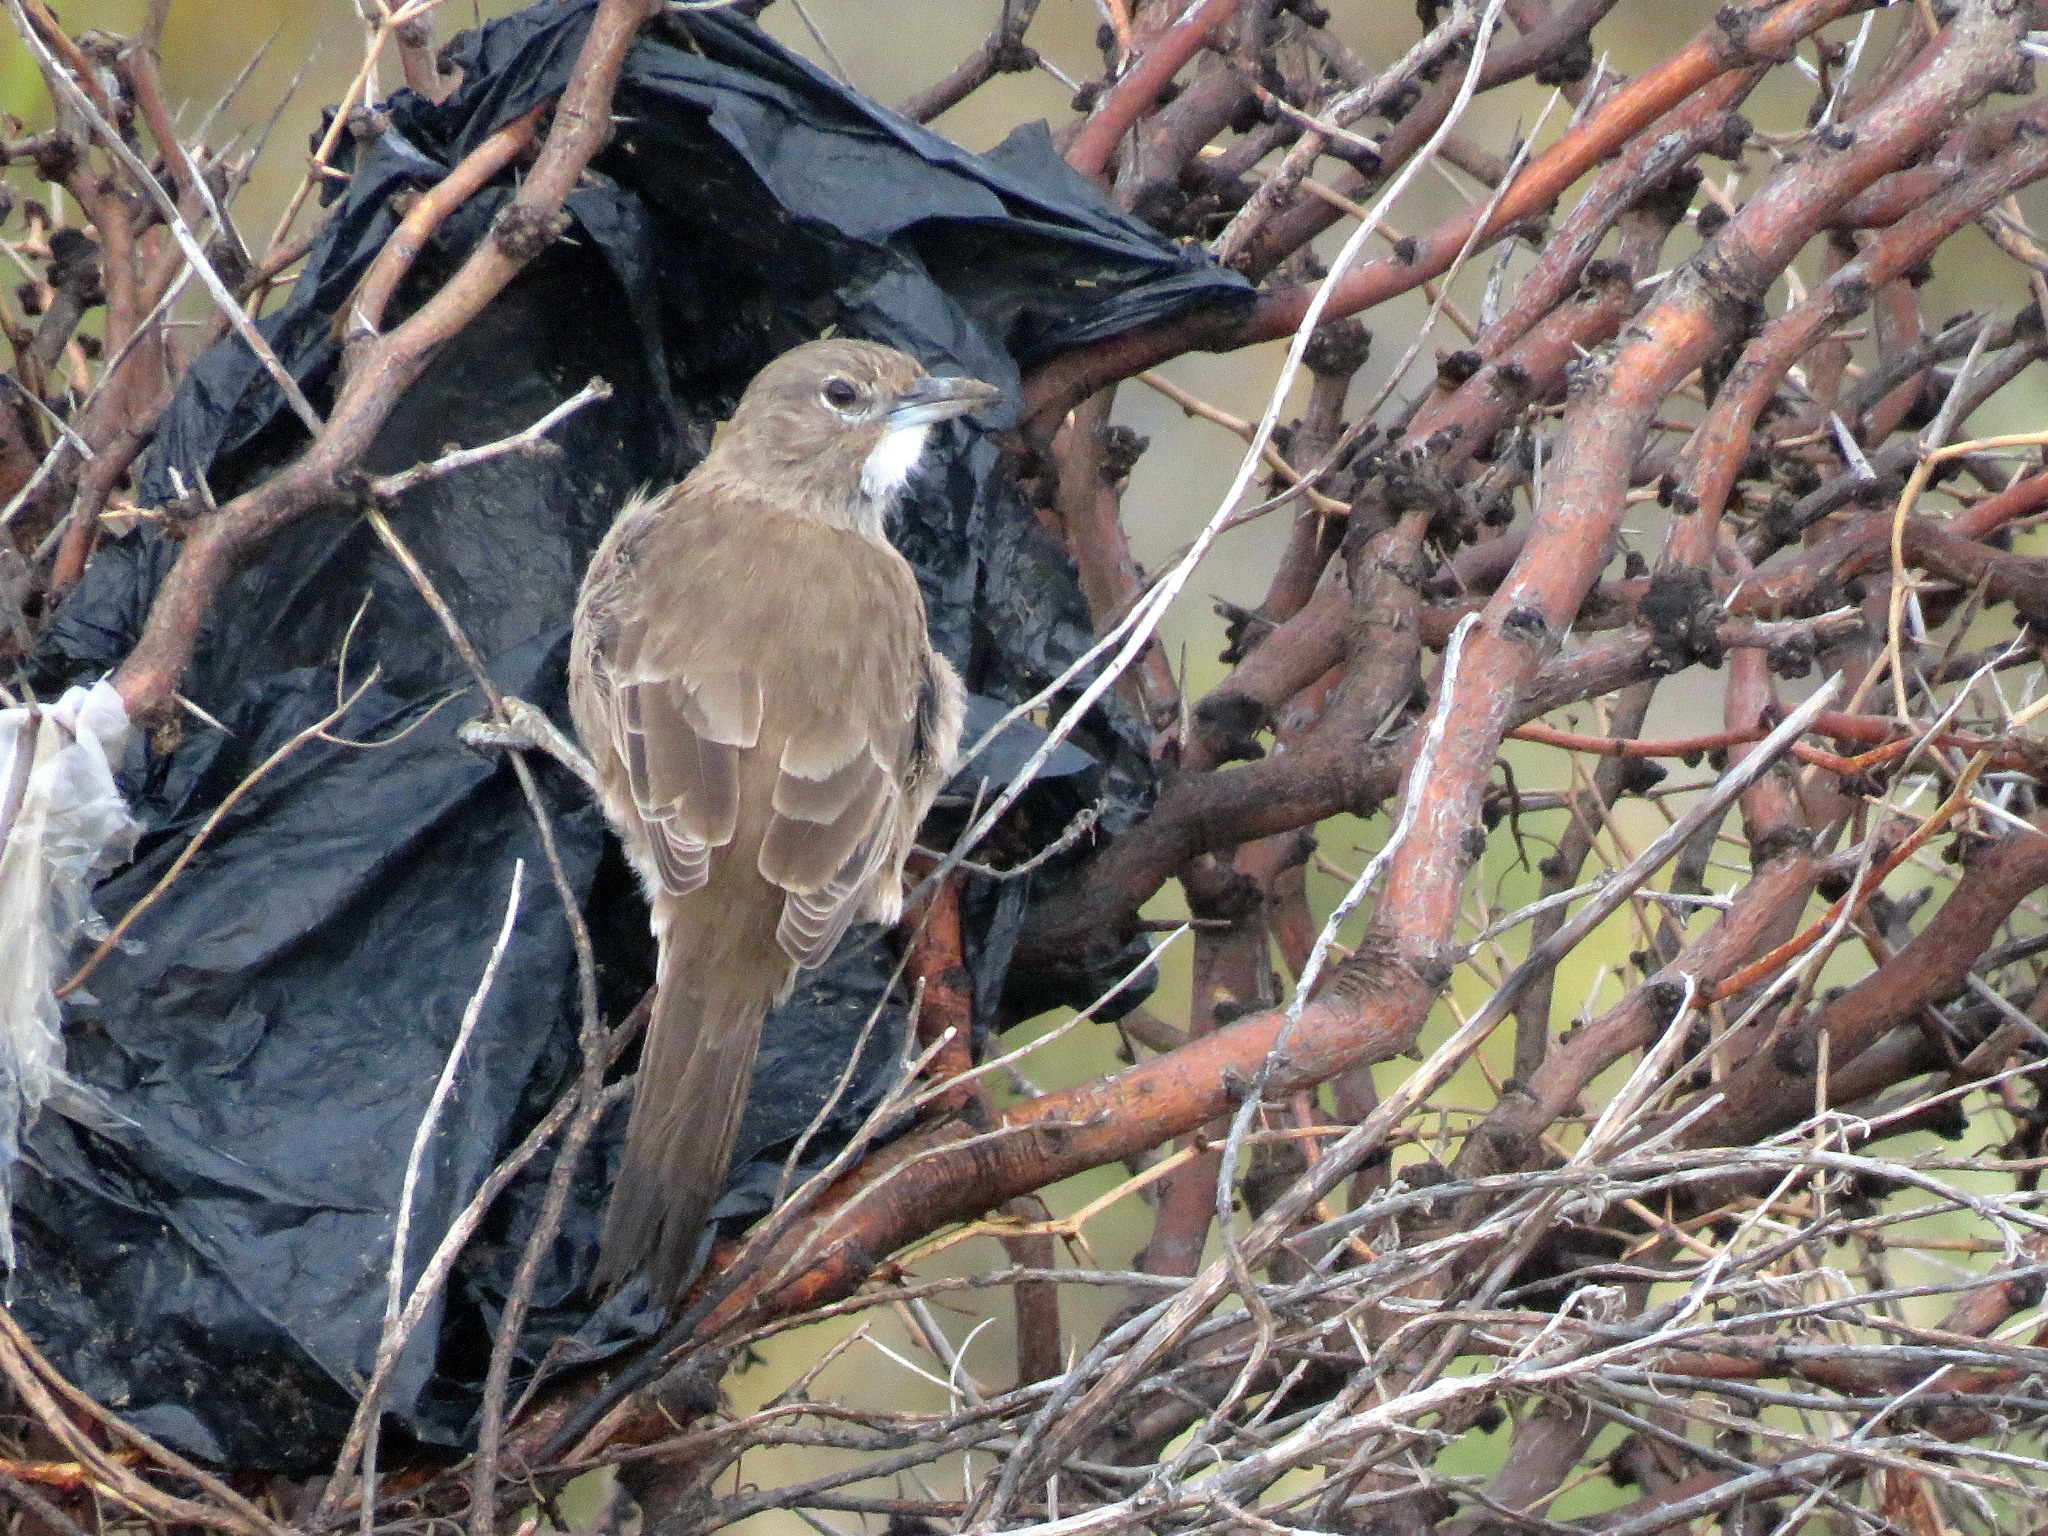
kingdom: Animalia
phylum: Chordata
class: Aves
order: Passeriformes
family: Furnariidae
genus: Pseudoseisura
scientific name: Pseudoseisura gutturalis
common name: White-throated cacholote
